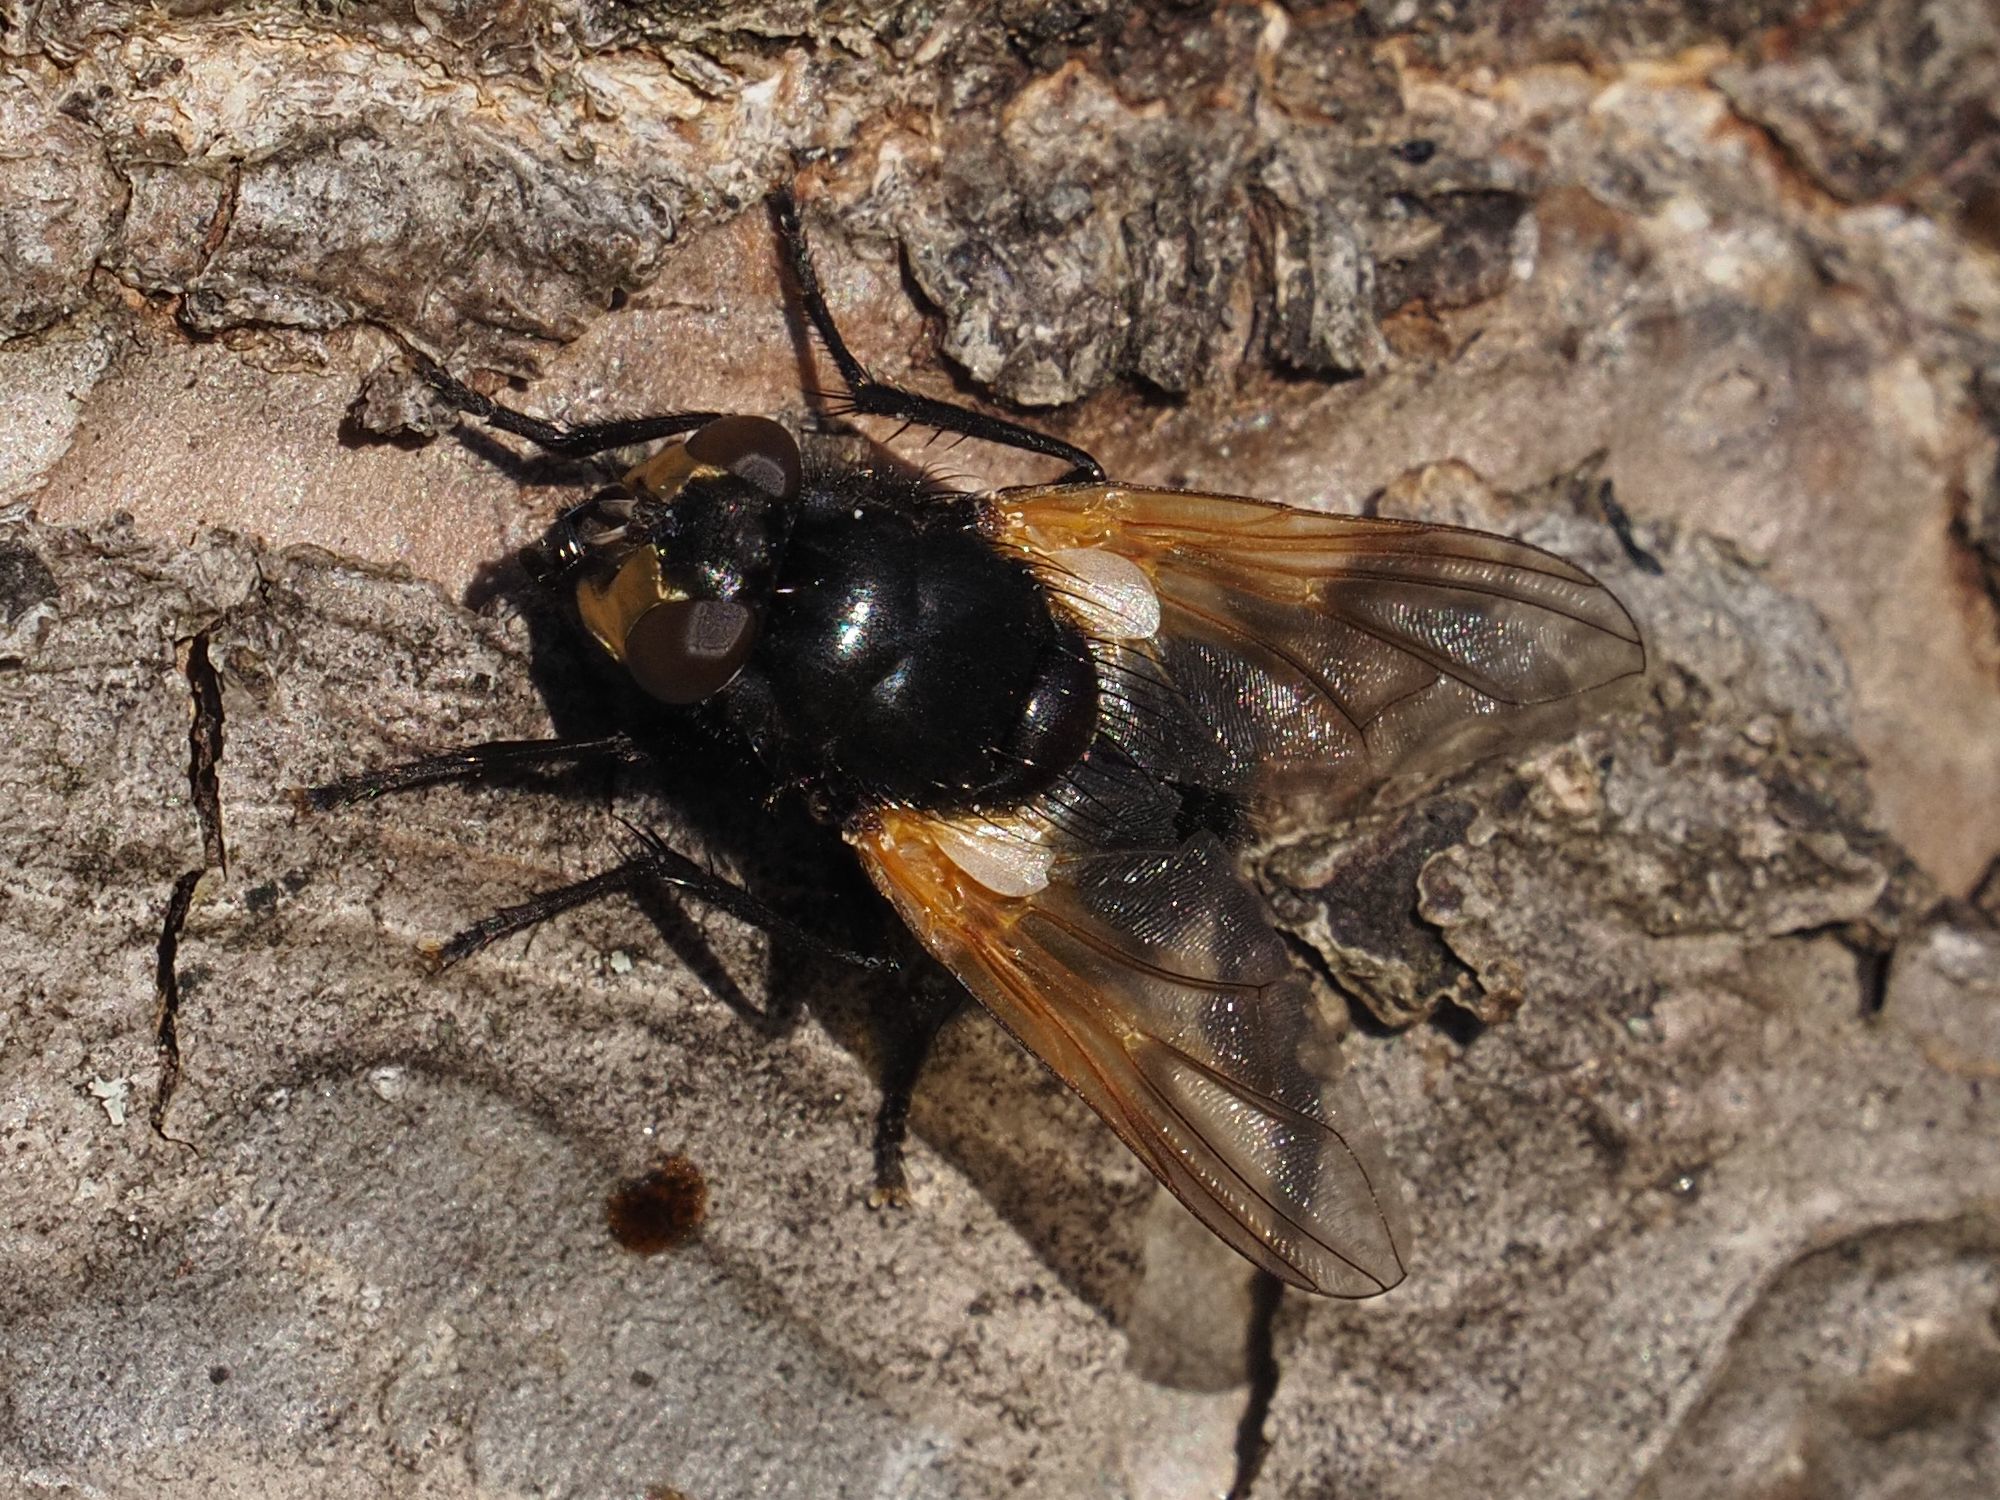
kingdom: Animalia
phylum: Arthropoda
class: Insecta
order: Diptera
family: Muscidae
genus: Mesembrina
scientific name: Mesembrina meridiana
